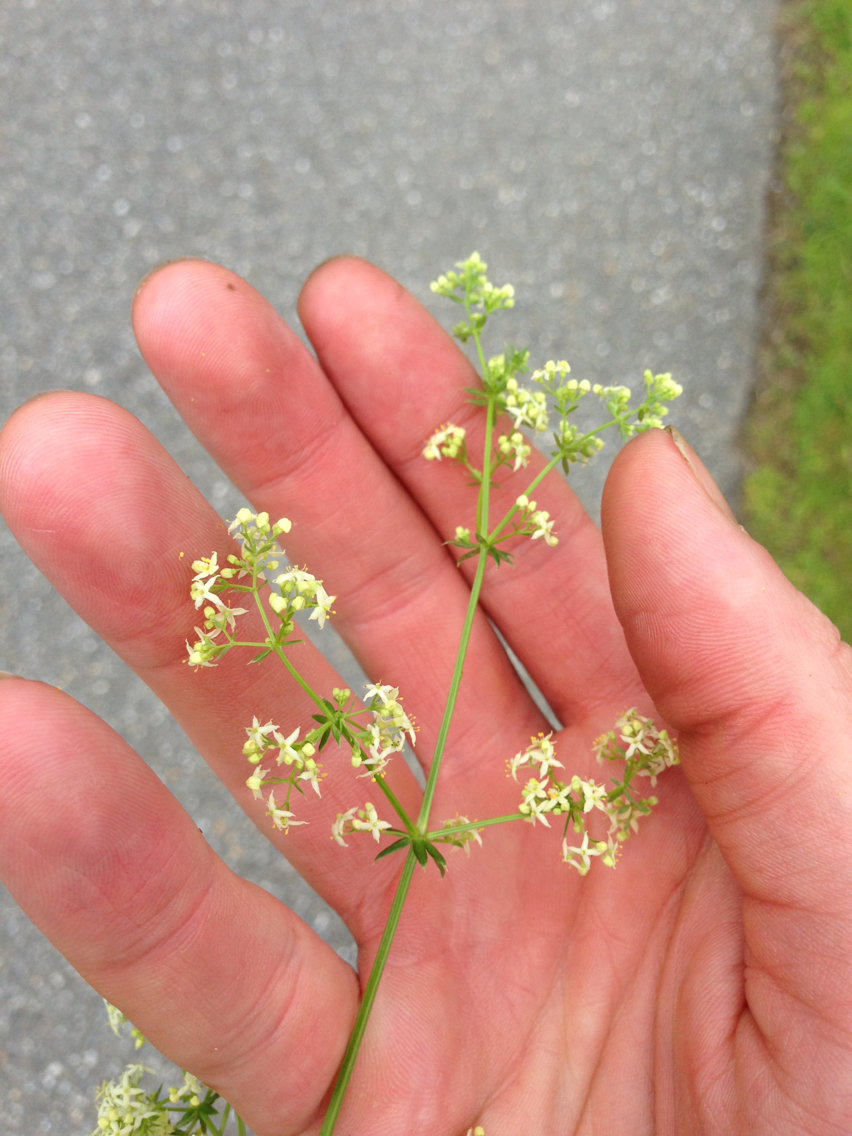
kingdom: Plantae
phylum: Tracheophyta
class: Magnoliopsida
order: Gentianales
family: Rubiaceae
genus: Galium
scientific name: Galium mollugo
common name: Hedge bedstraw
